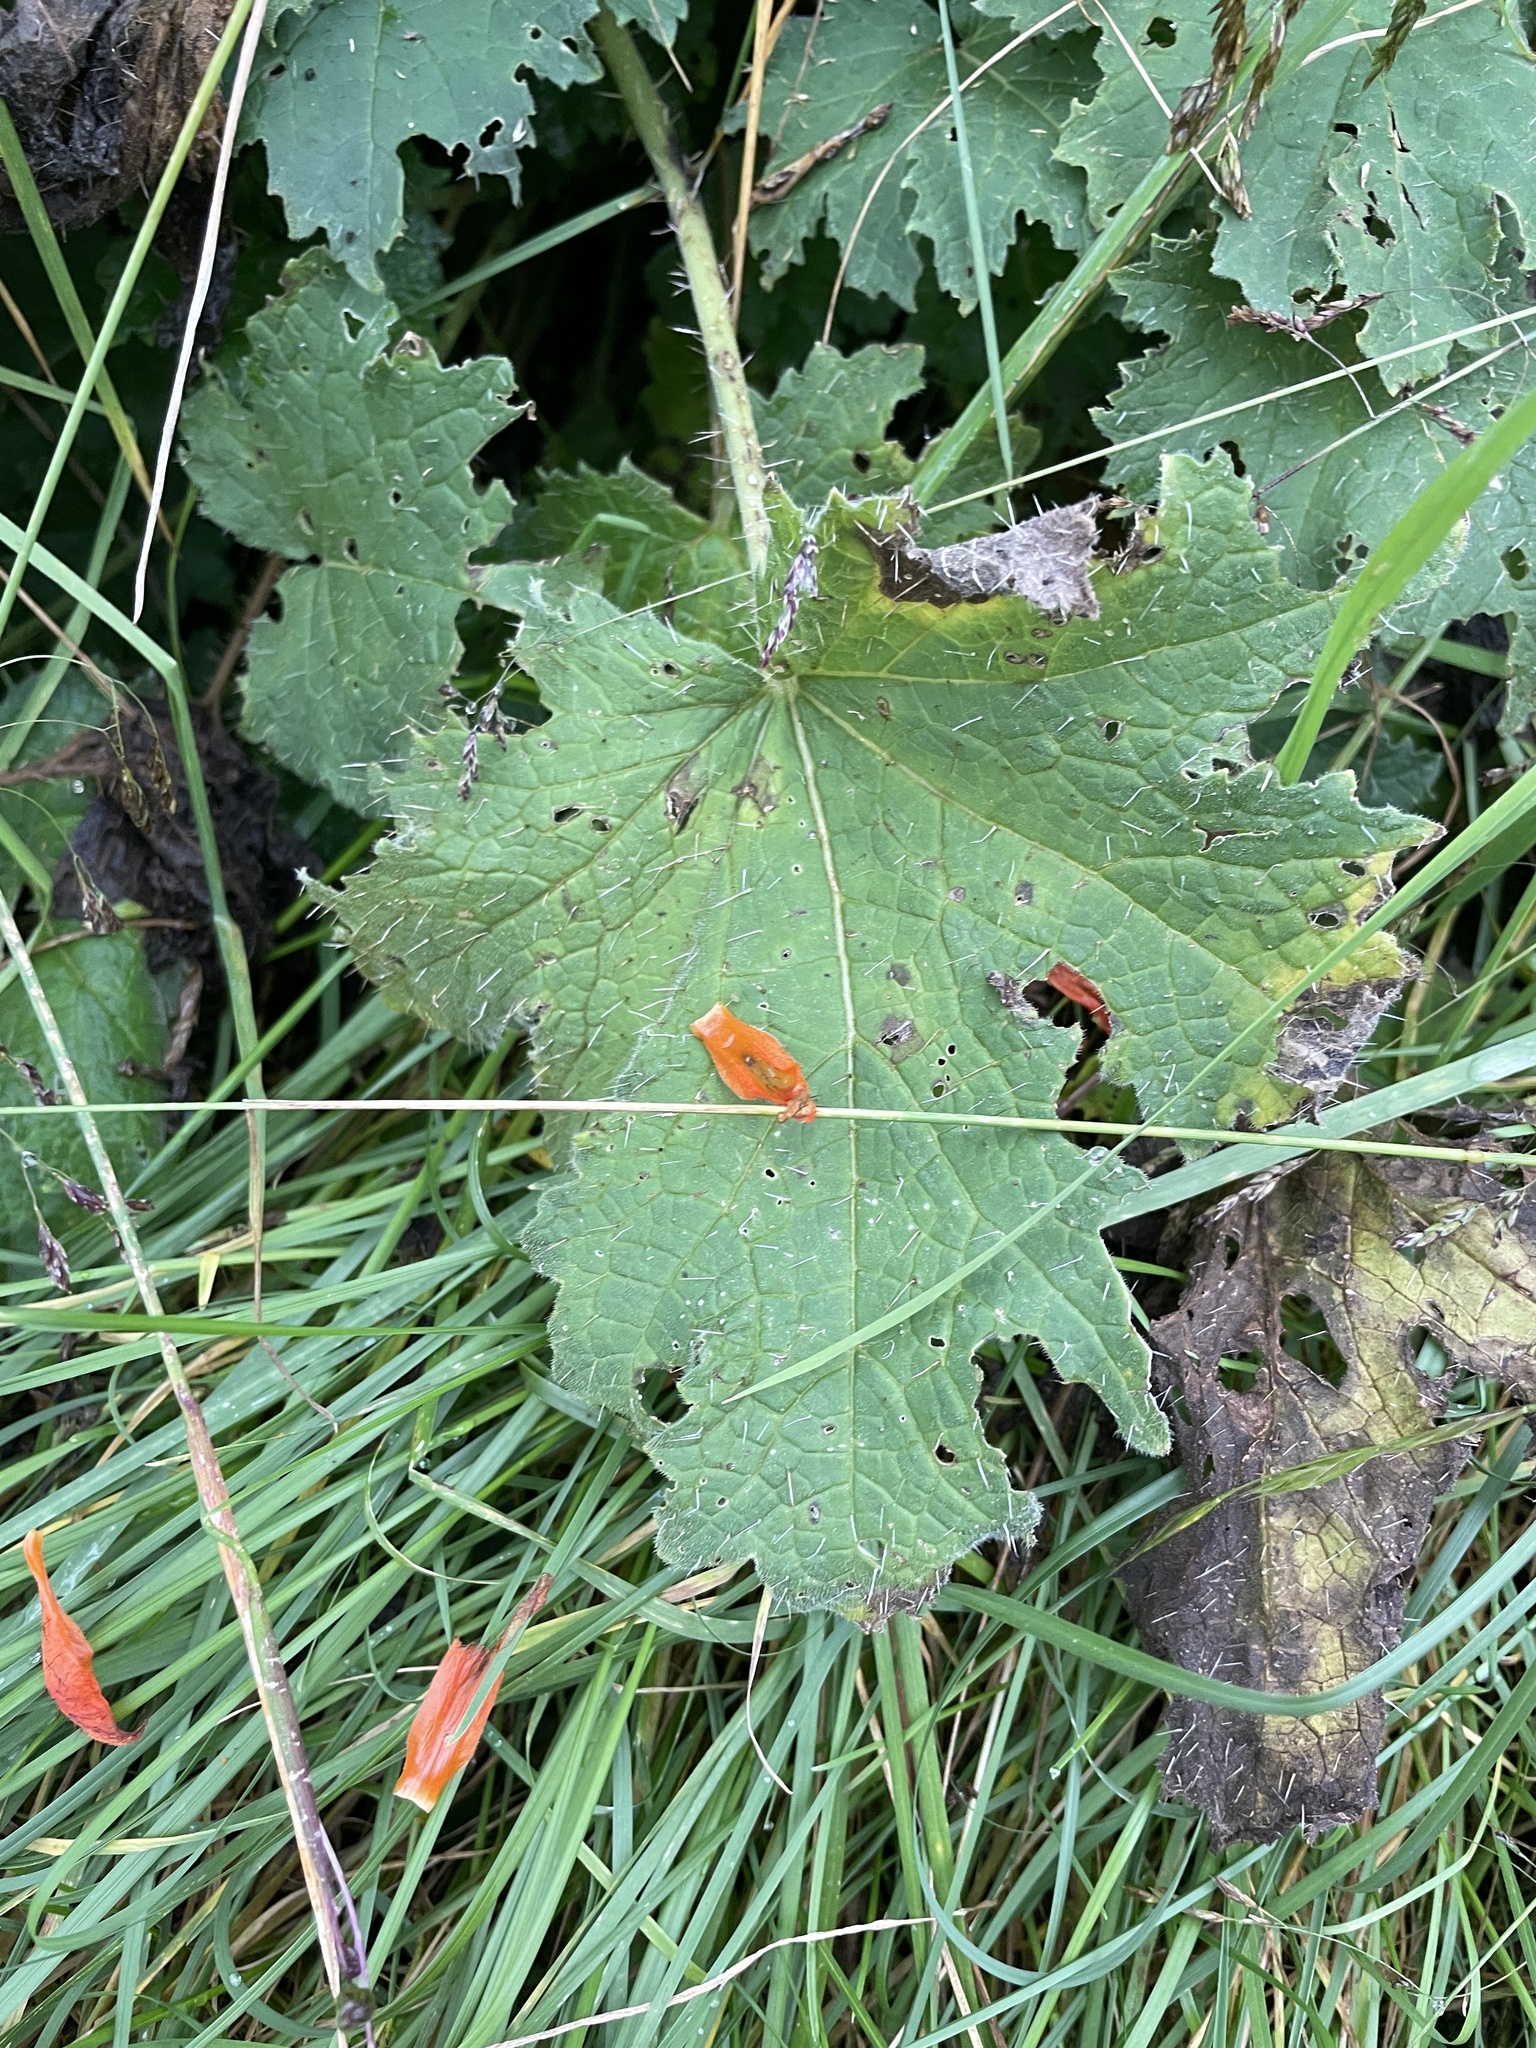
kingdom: Plantae
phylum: Tracheophyta
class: Magnoliopsida
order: Cornales
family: Loasaceae
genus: Nasa
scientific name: Nasa ranunculifolia
